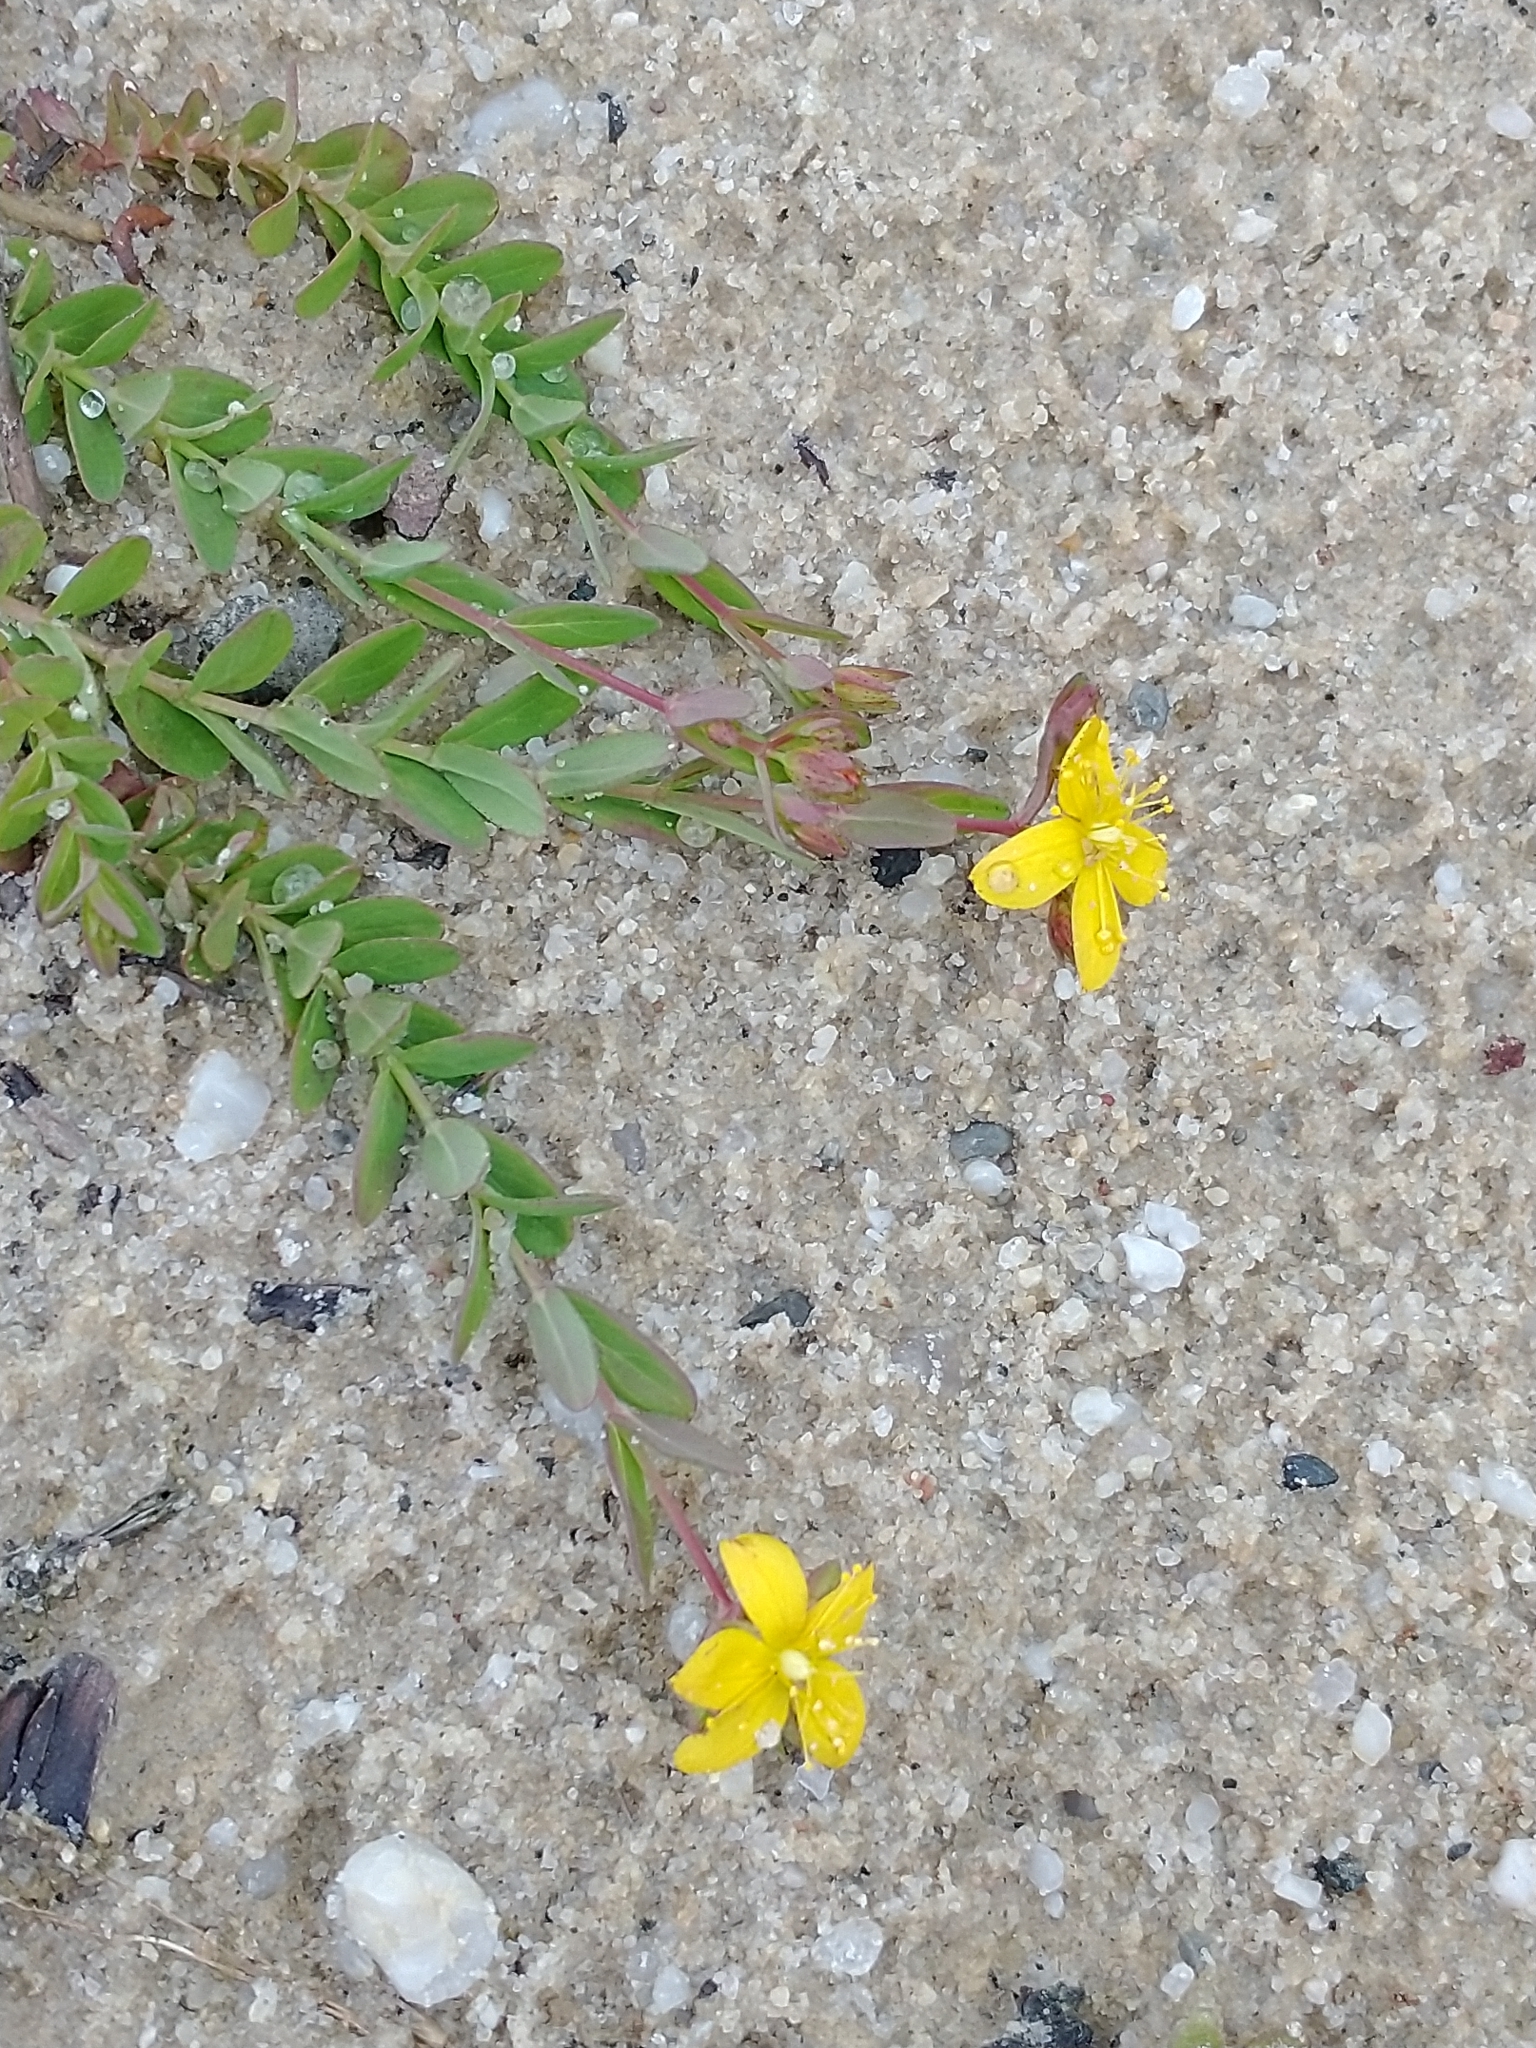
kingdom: Plantae
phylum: Tracheophyta
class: Magnoliopsida
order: Malpighiales
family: Hypericaceae
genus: Hypericum
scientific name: Hypericum humifusum
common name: Trailing st. john's-wort
